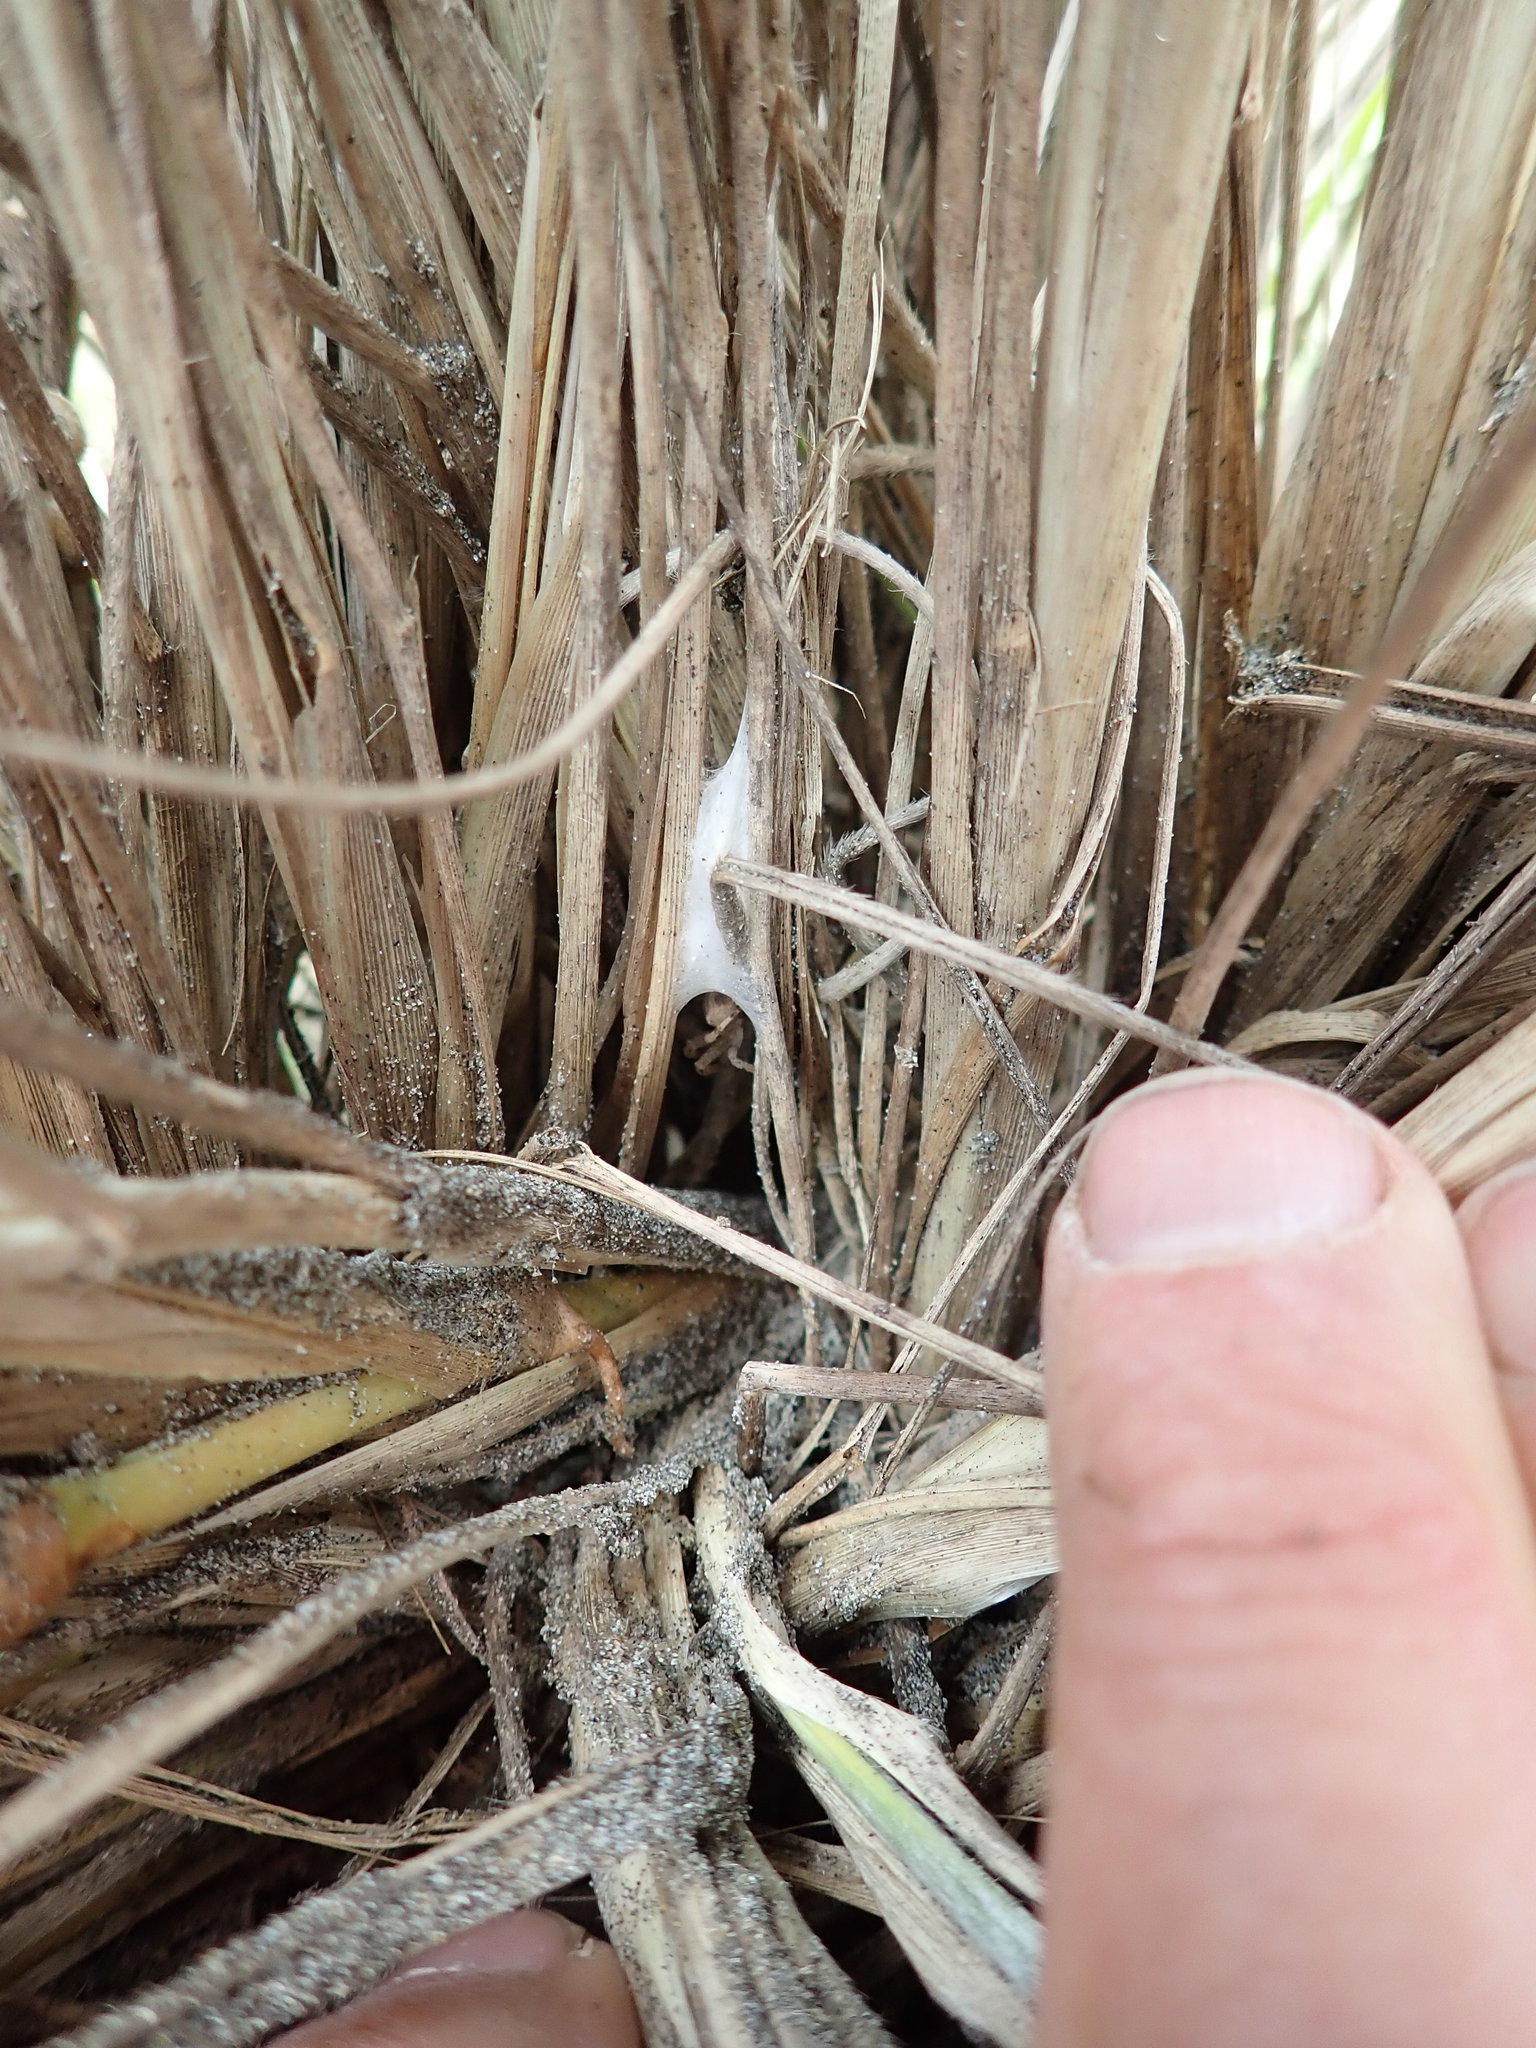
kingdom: Animalia
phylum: Arthropoda
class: Arachnida
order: Araneae
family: Thomisidae
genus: Sidymella
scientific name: Sidymella trapezia
